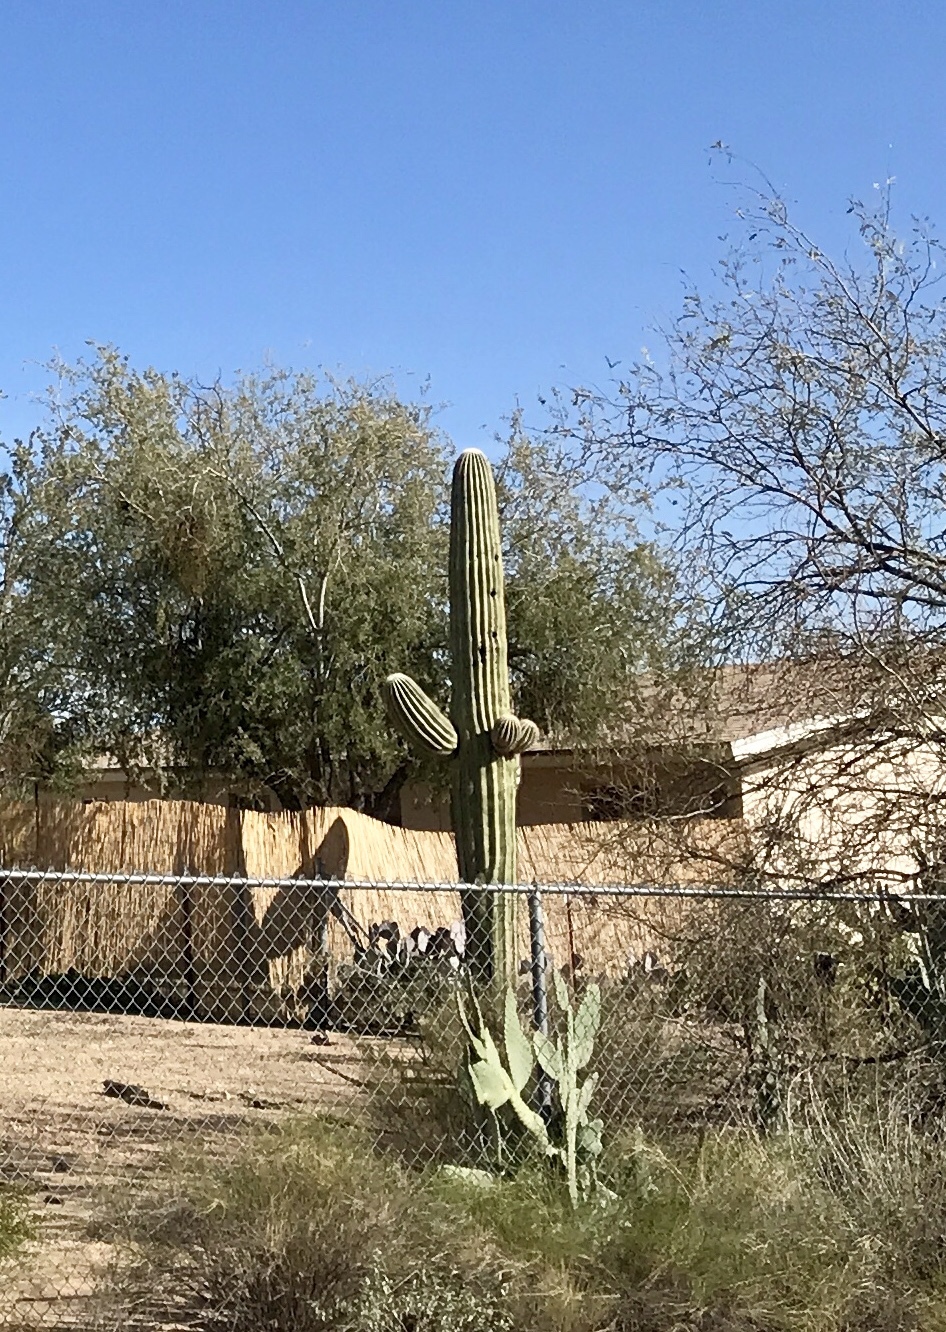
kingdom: Plantae
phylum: Tracheophyta
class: Magnoliopsida
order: Caryophyllales
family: Cactaceae
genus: Carnegiea
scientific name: Carnegiea gigantea
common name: Saguaro
